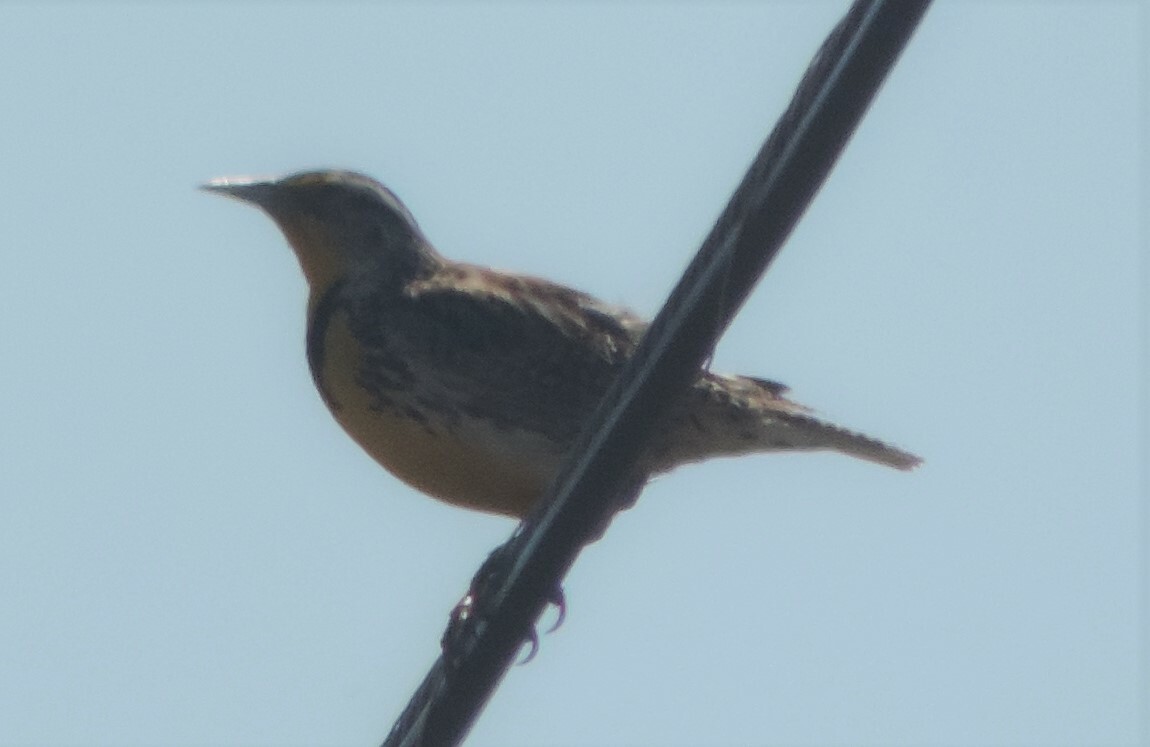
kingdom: Animalia
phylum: Chordata
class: Aves
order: Passeriformes
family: Icteridae
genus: Sturnella
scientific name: Sturnella neglecta
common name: Western meadowlark
